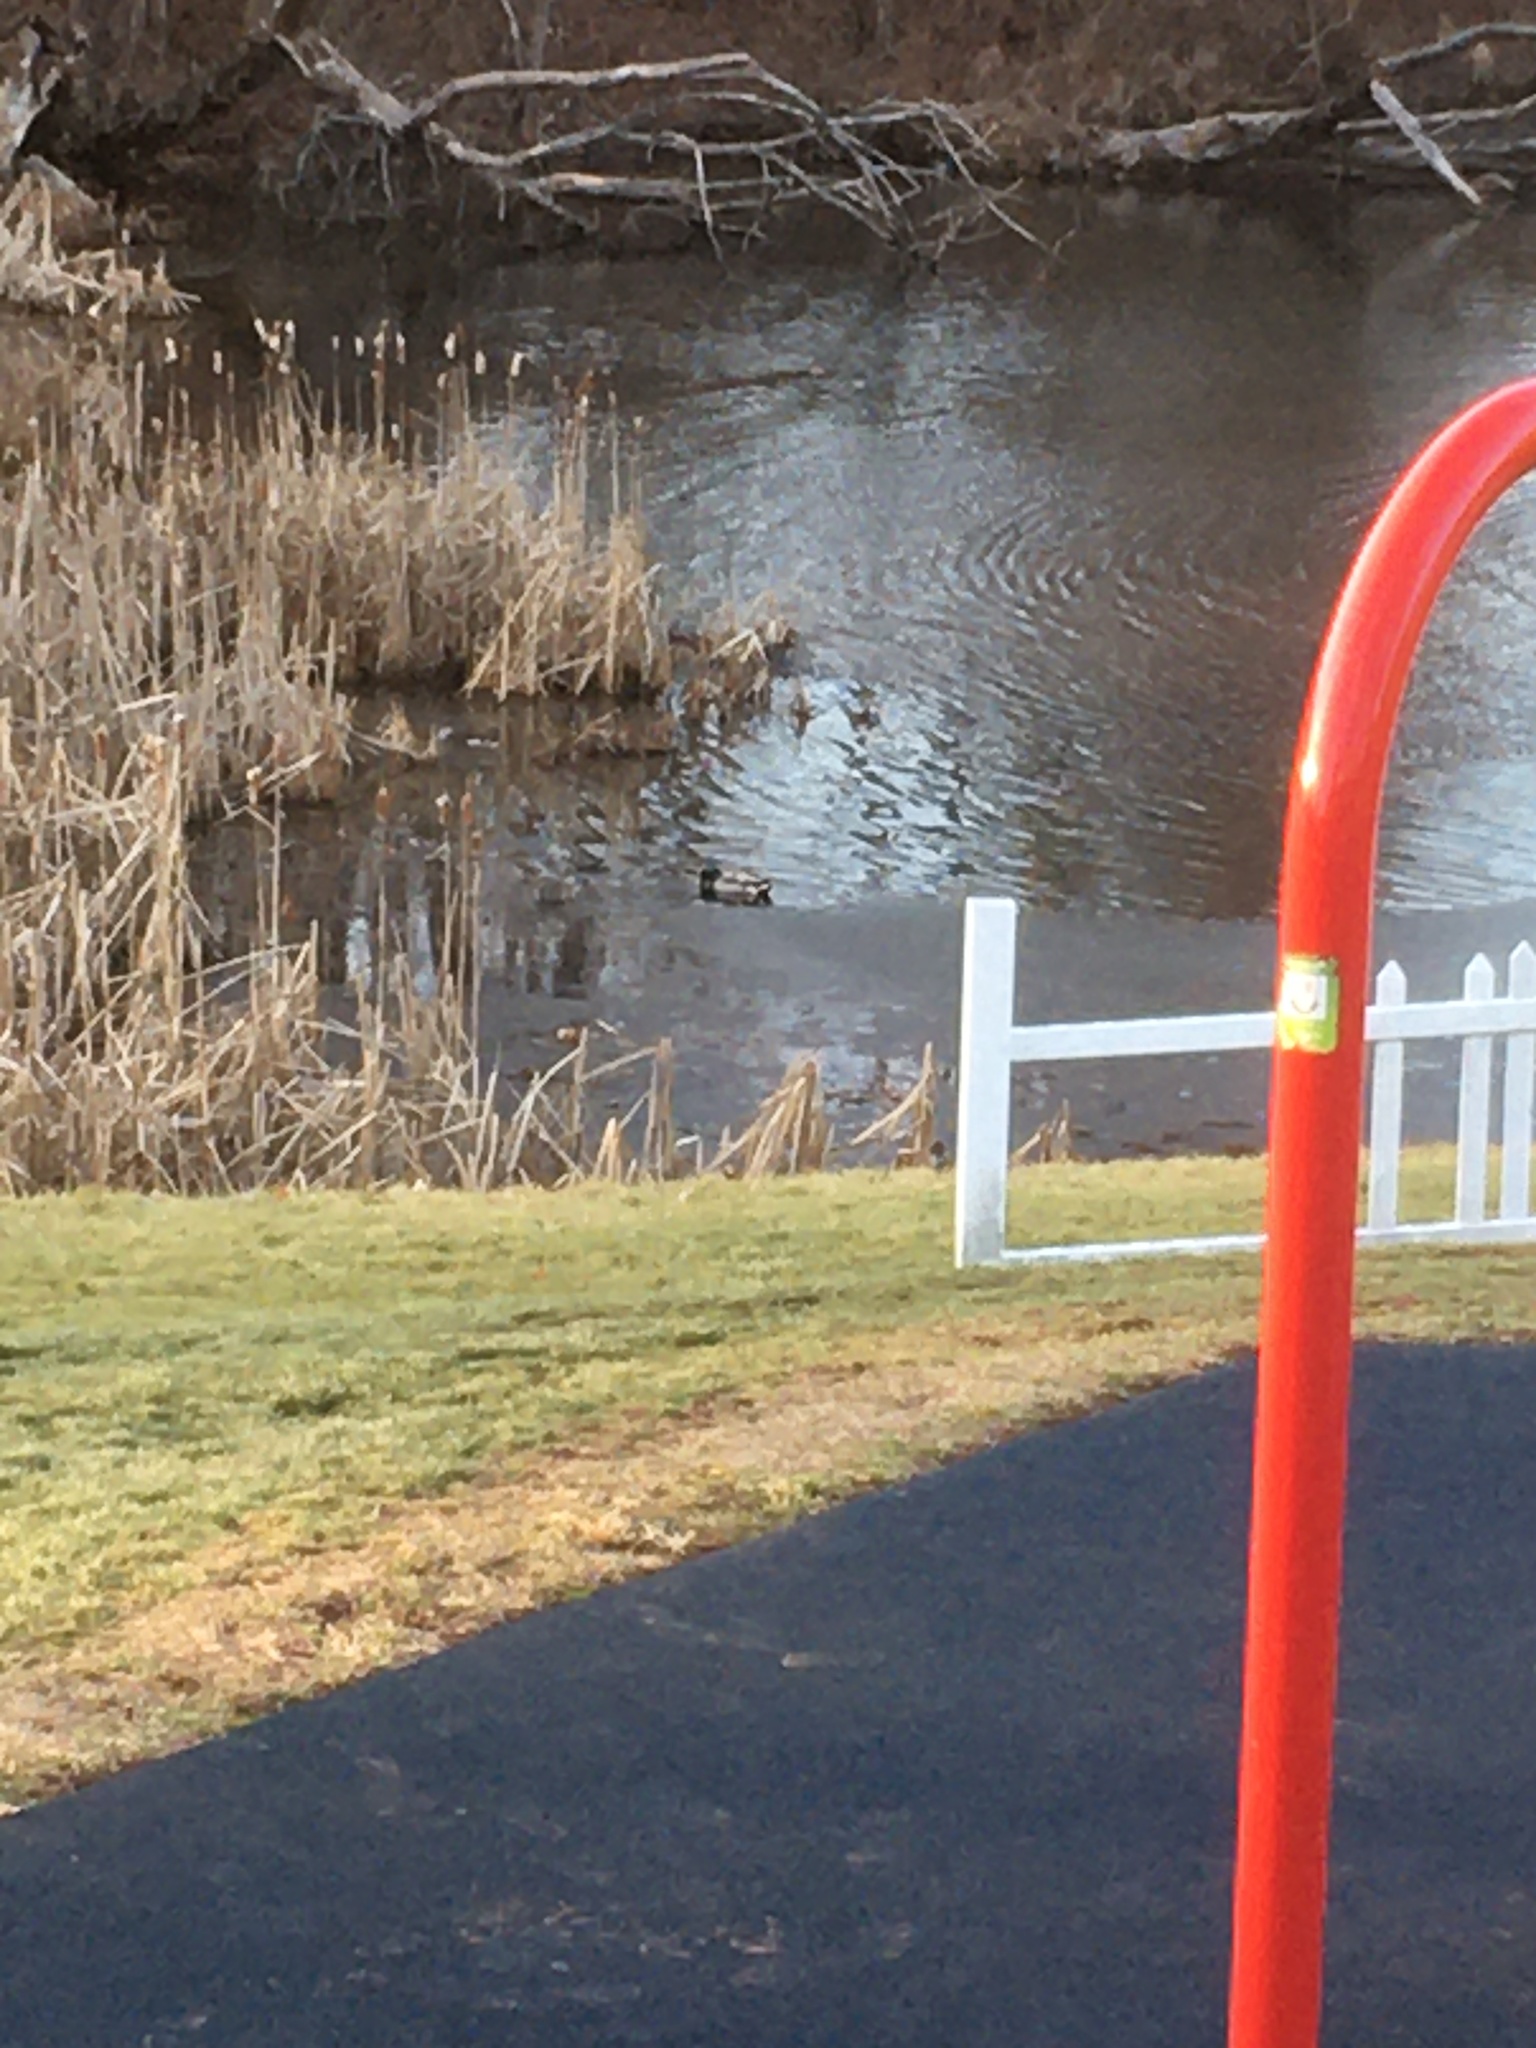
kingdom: Animalia
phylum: Chordata
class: Aves
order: Anseriformes
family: Anatidae
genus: Anas
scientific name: Anas platyrhynchos
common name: Mallard
